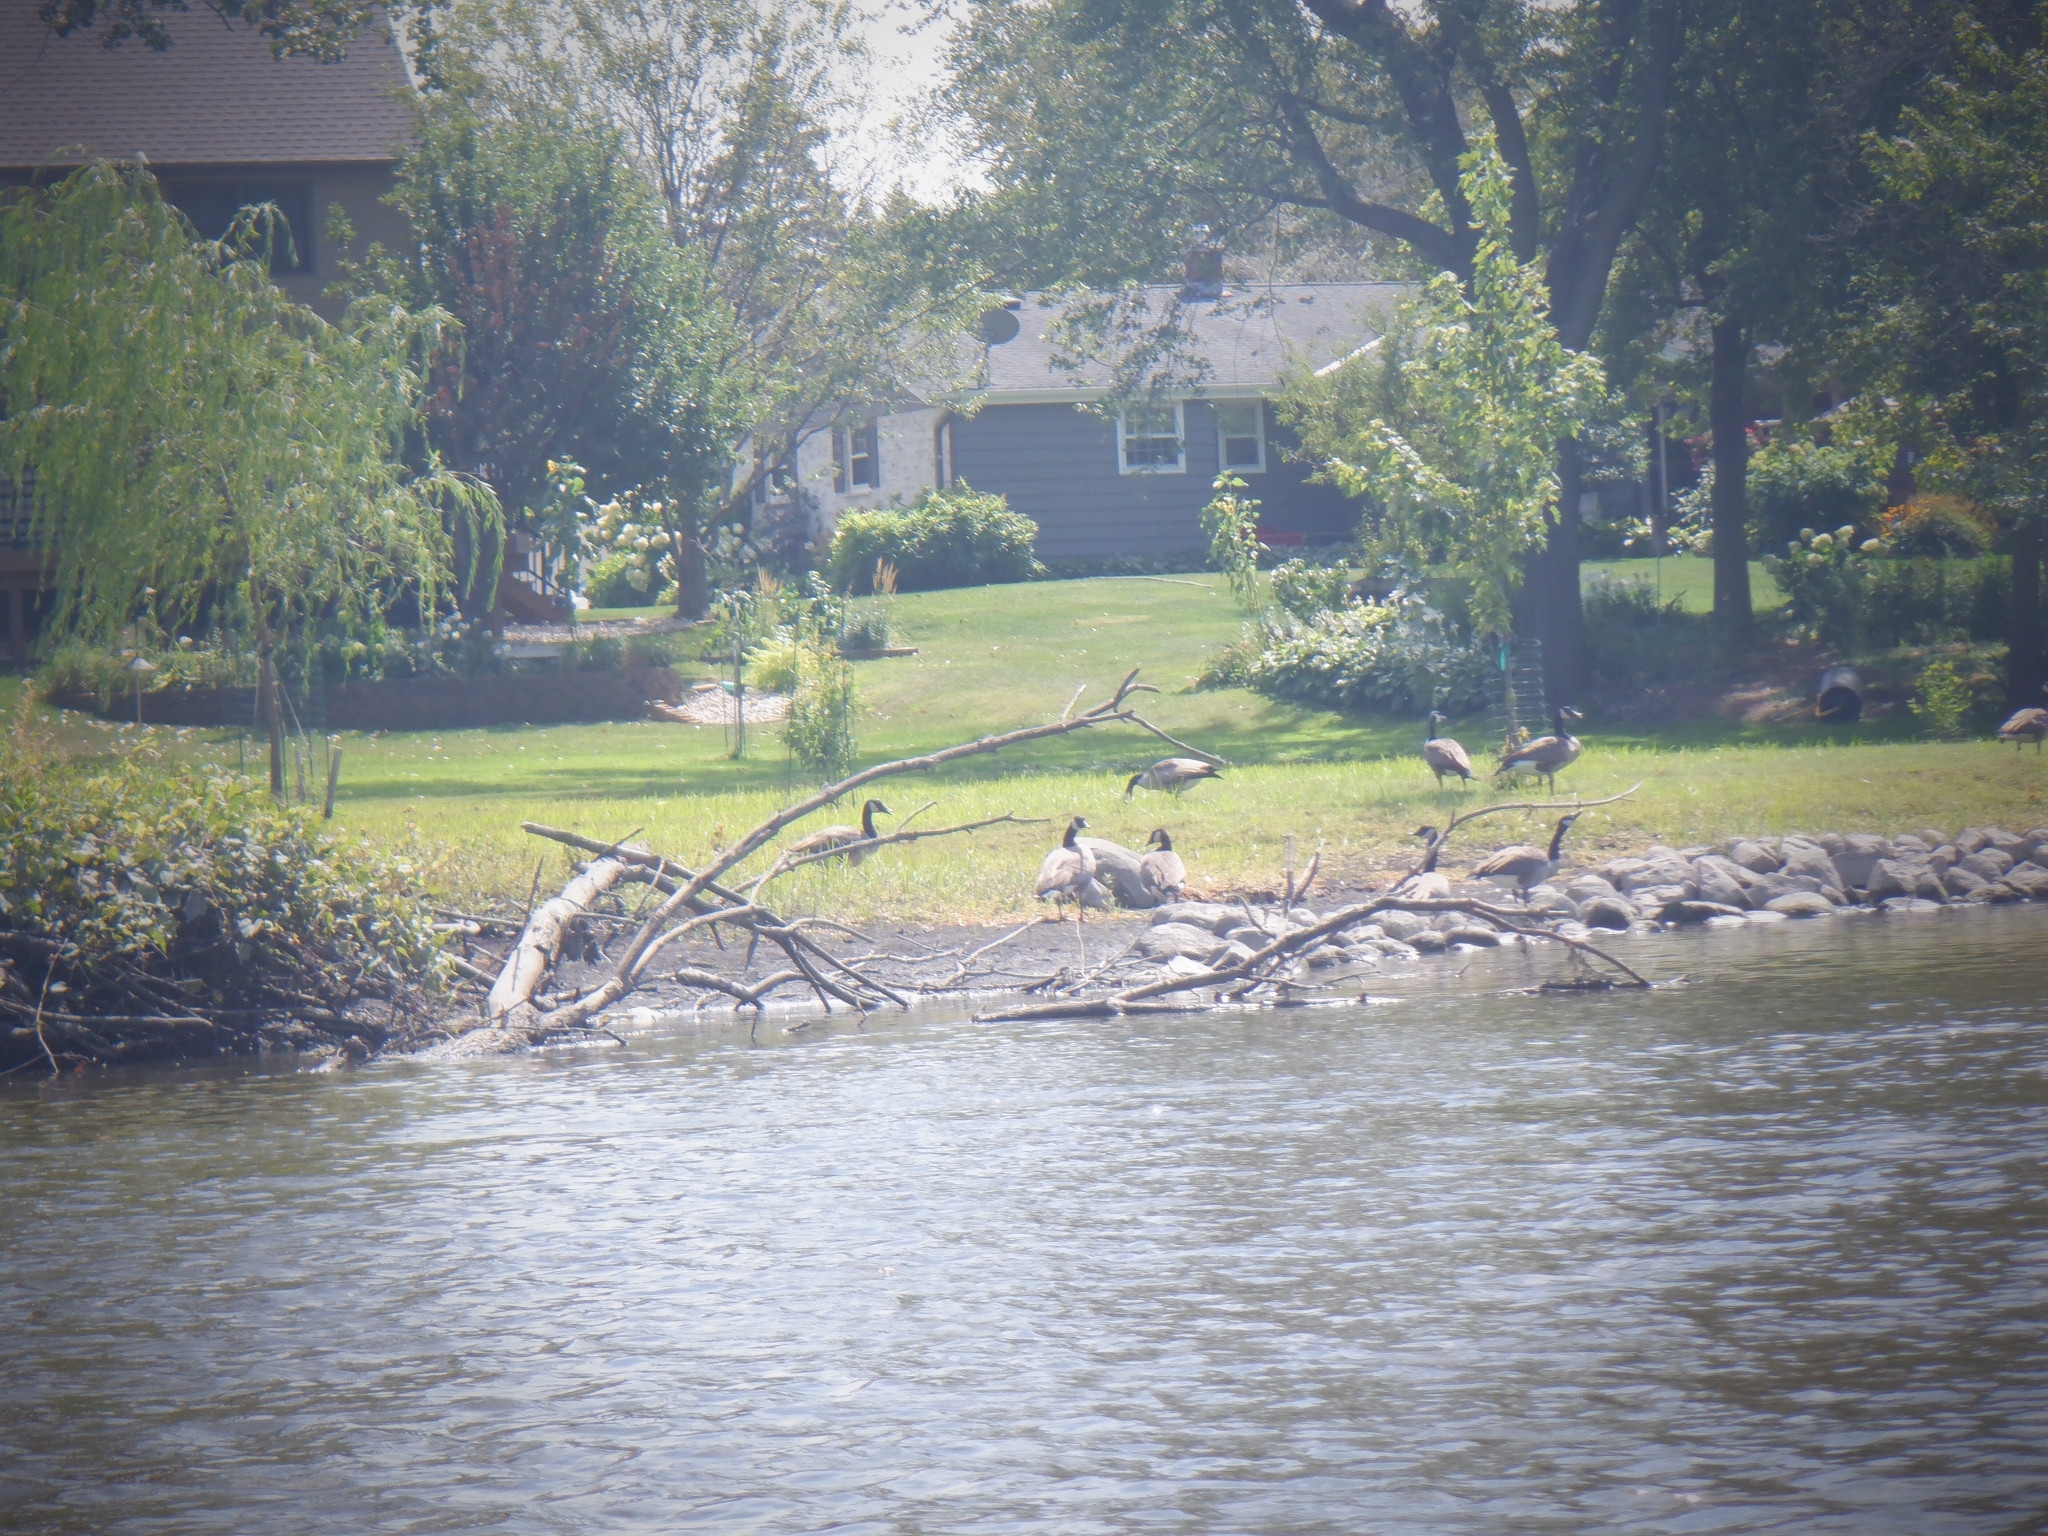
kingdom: Animalia
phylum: Chordata
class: Aves
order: Anseriformes
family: Anatidae
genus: Branta
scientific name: Branta canadensis
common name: Canada goose
